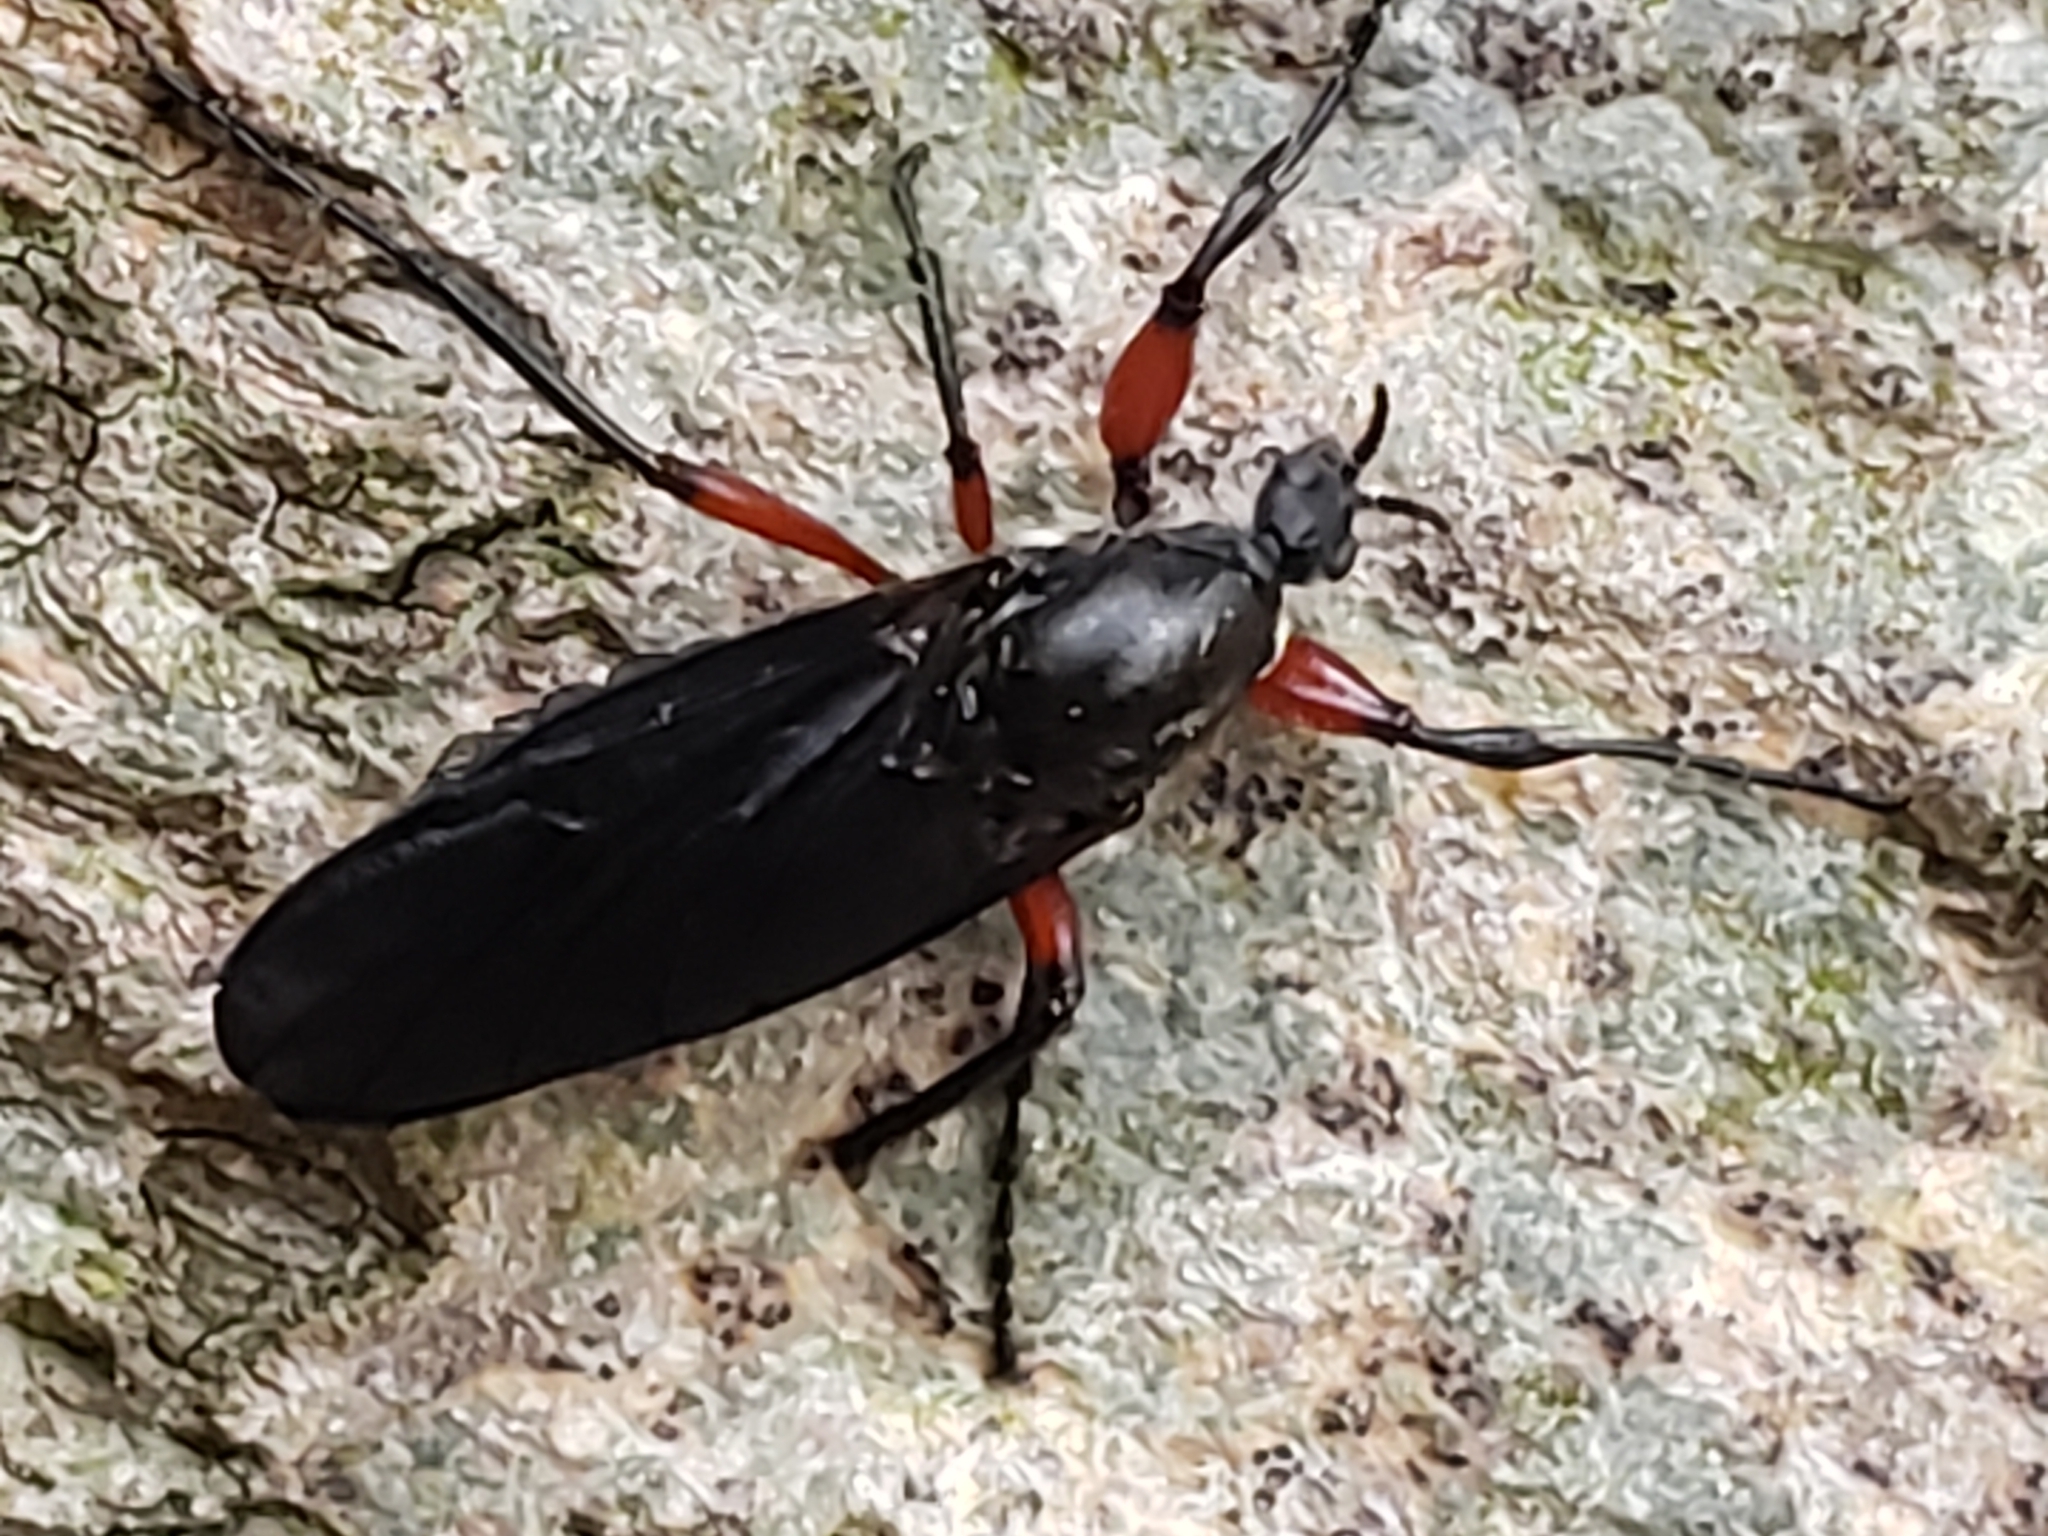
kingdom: Animalia
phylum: Arthropoda
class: Insecta
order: Diptera
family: Bibionidae
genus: Bibio
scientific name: Bibio femoratus
